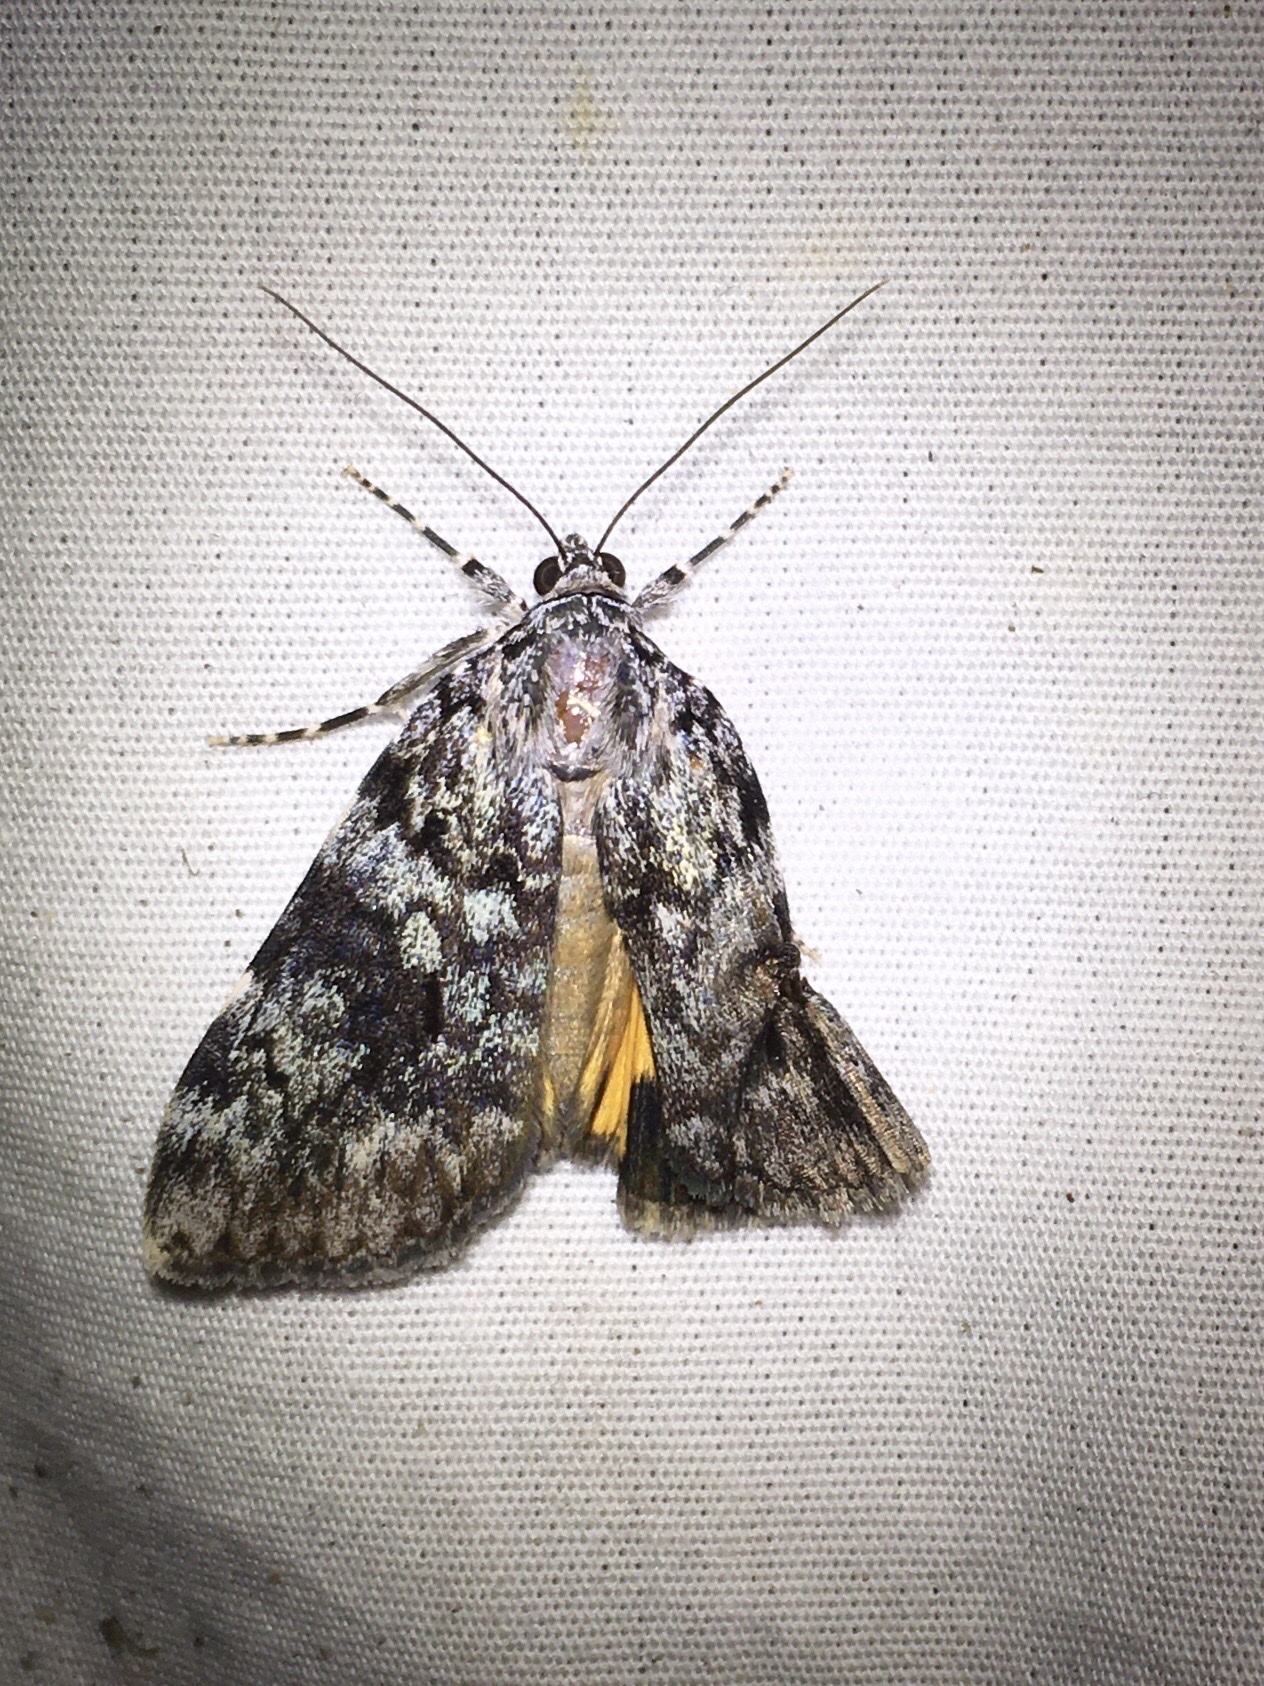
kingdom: Animalia
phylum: Arthropoda
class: Insecta
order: Lepidoptera
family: Erebidae
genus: Catocala
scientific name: Catocala lineella
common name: Little lined underwing
